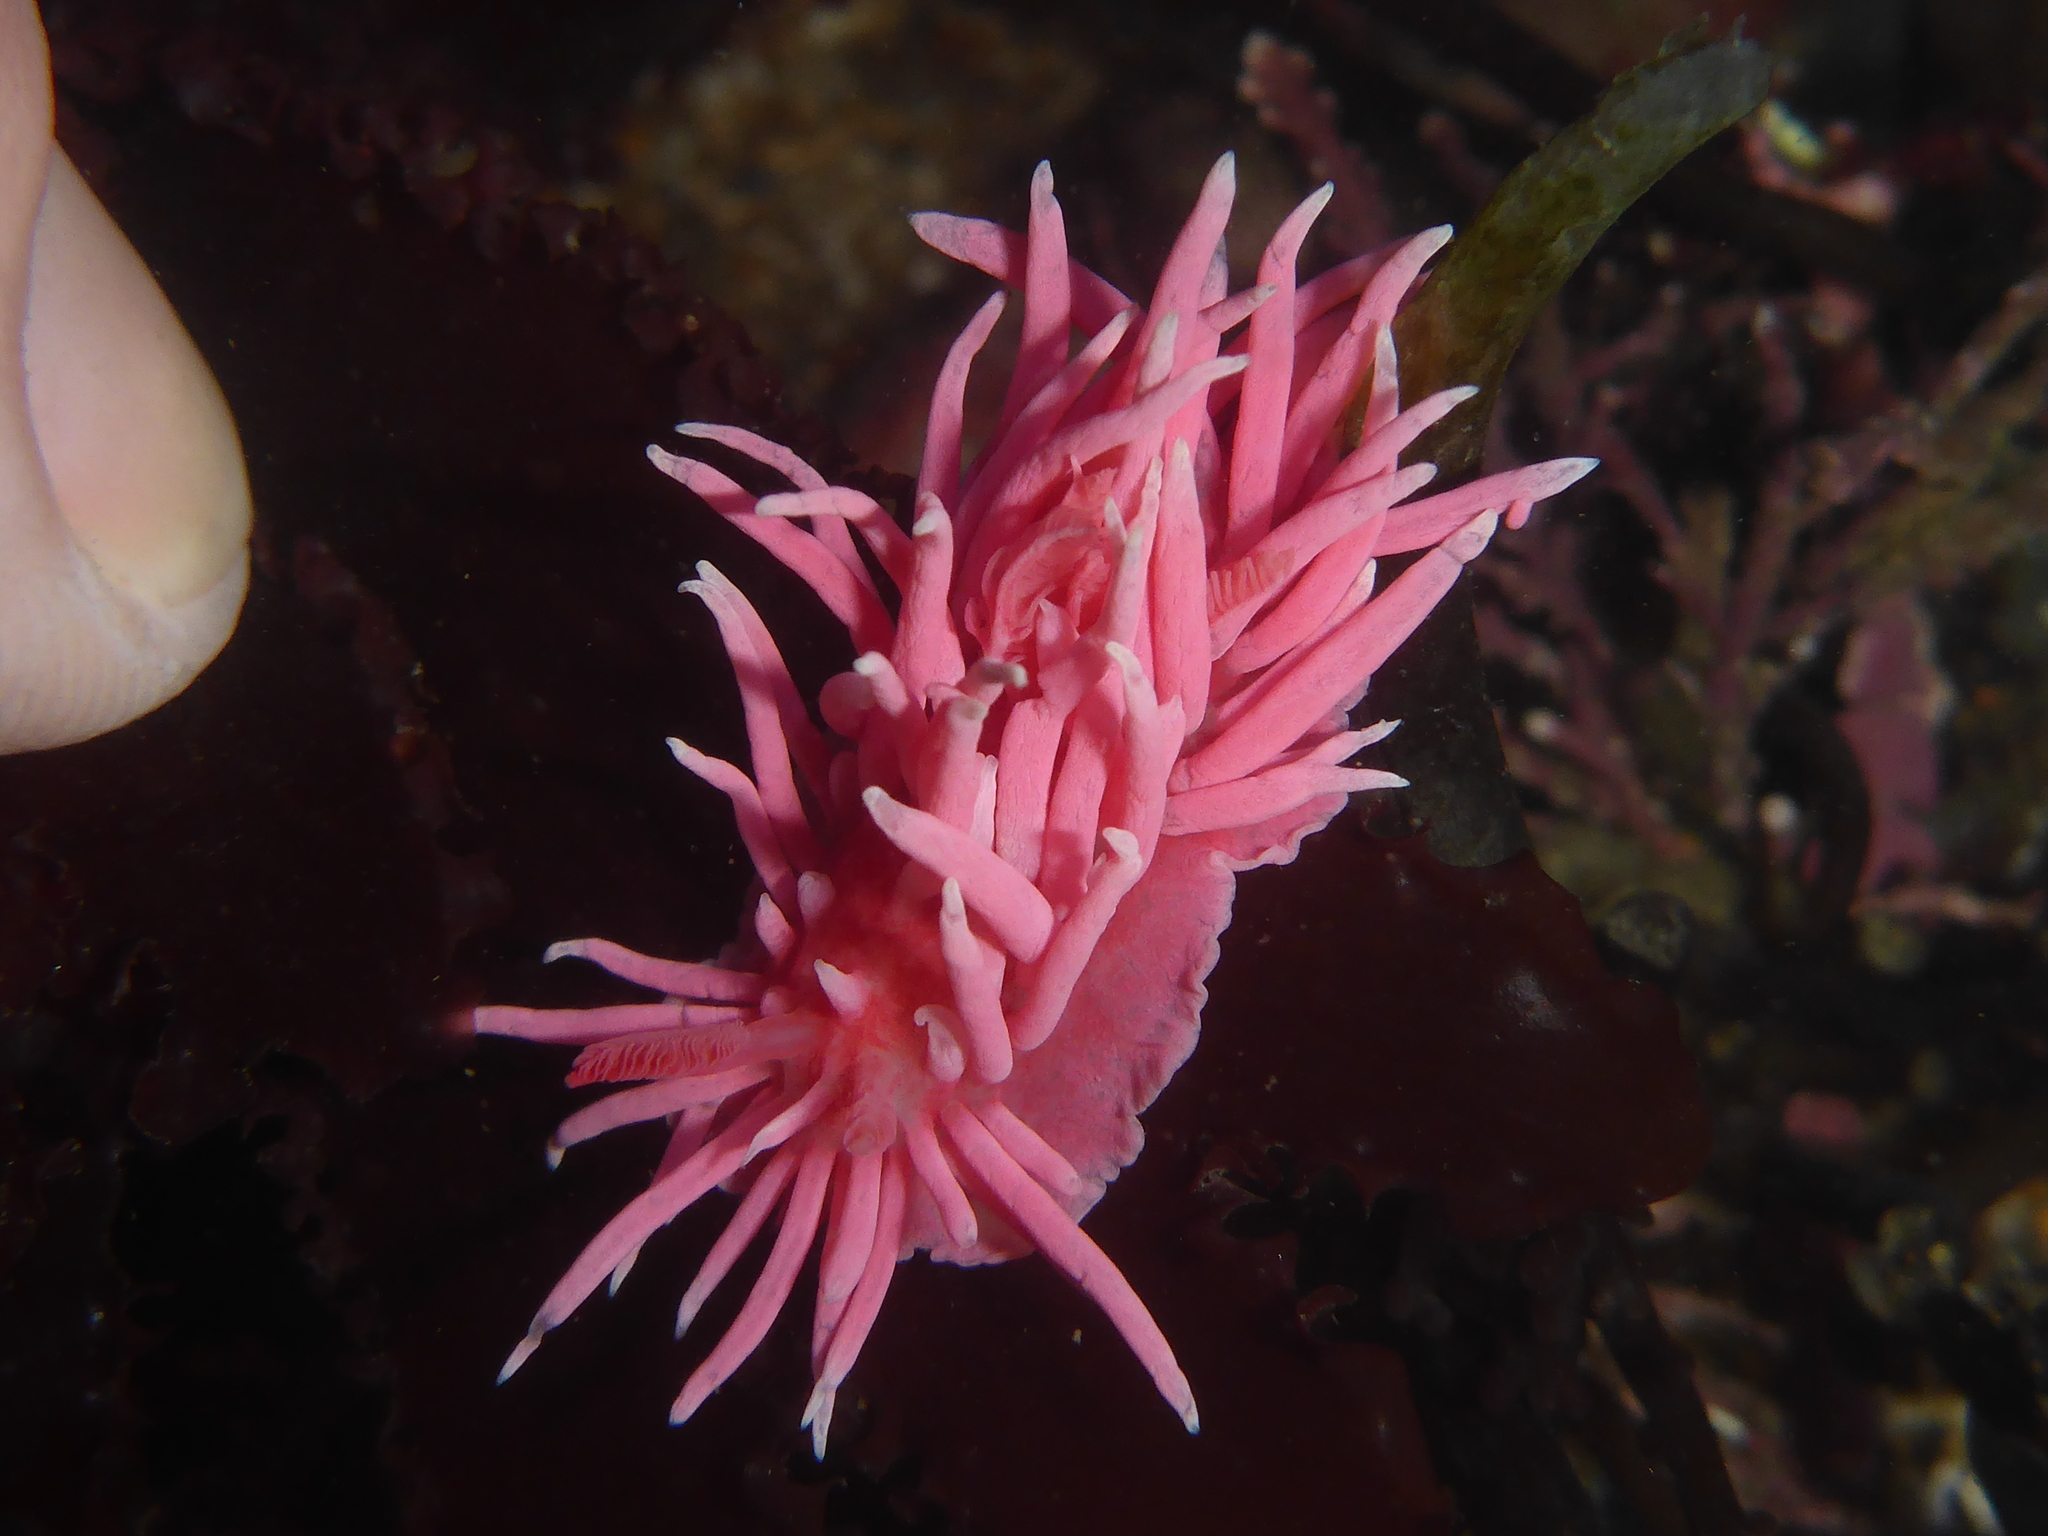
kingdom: Animalia
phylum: Mollusca
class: Gastropoda
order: Nudibranchia
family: Goniodorididae
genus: Okenia
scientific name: Okenia
